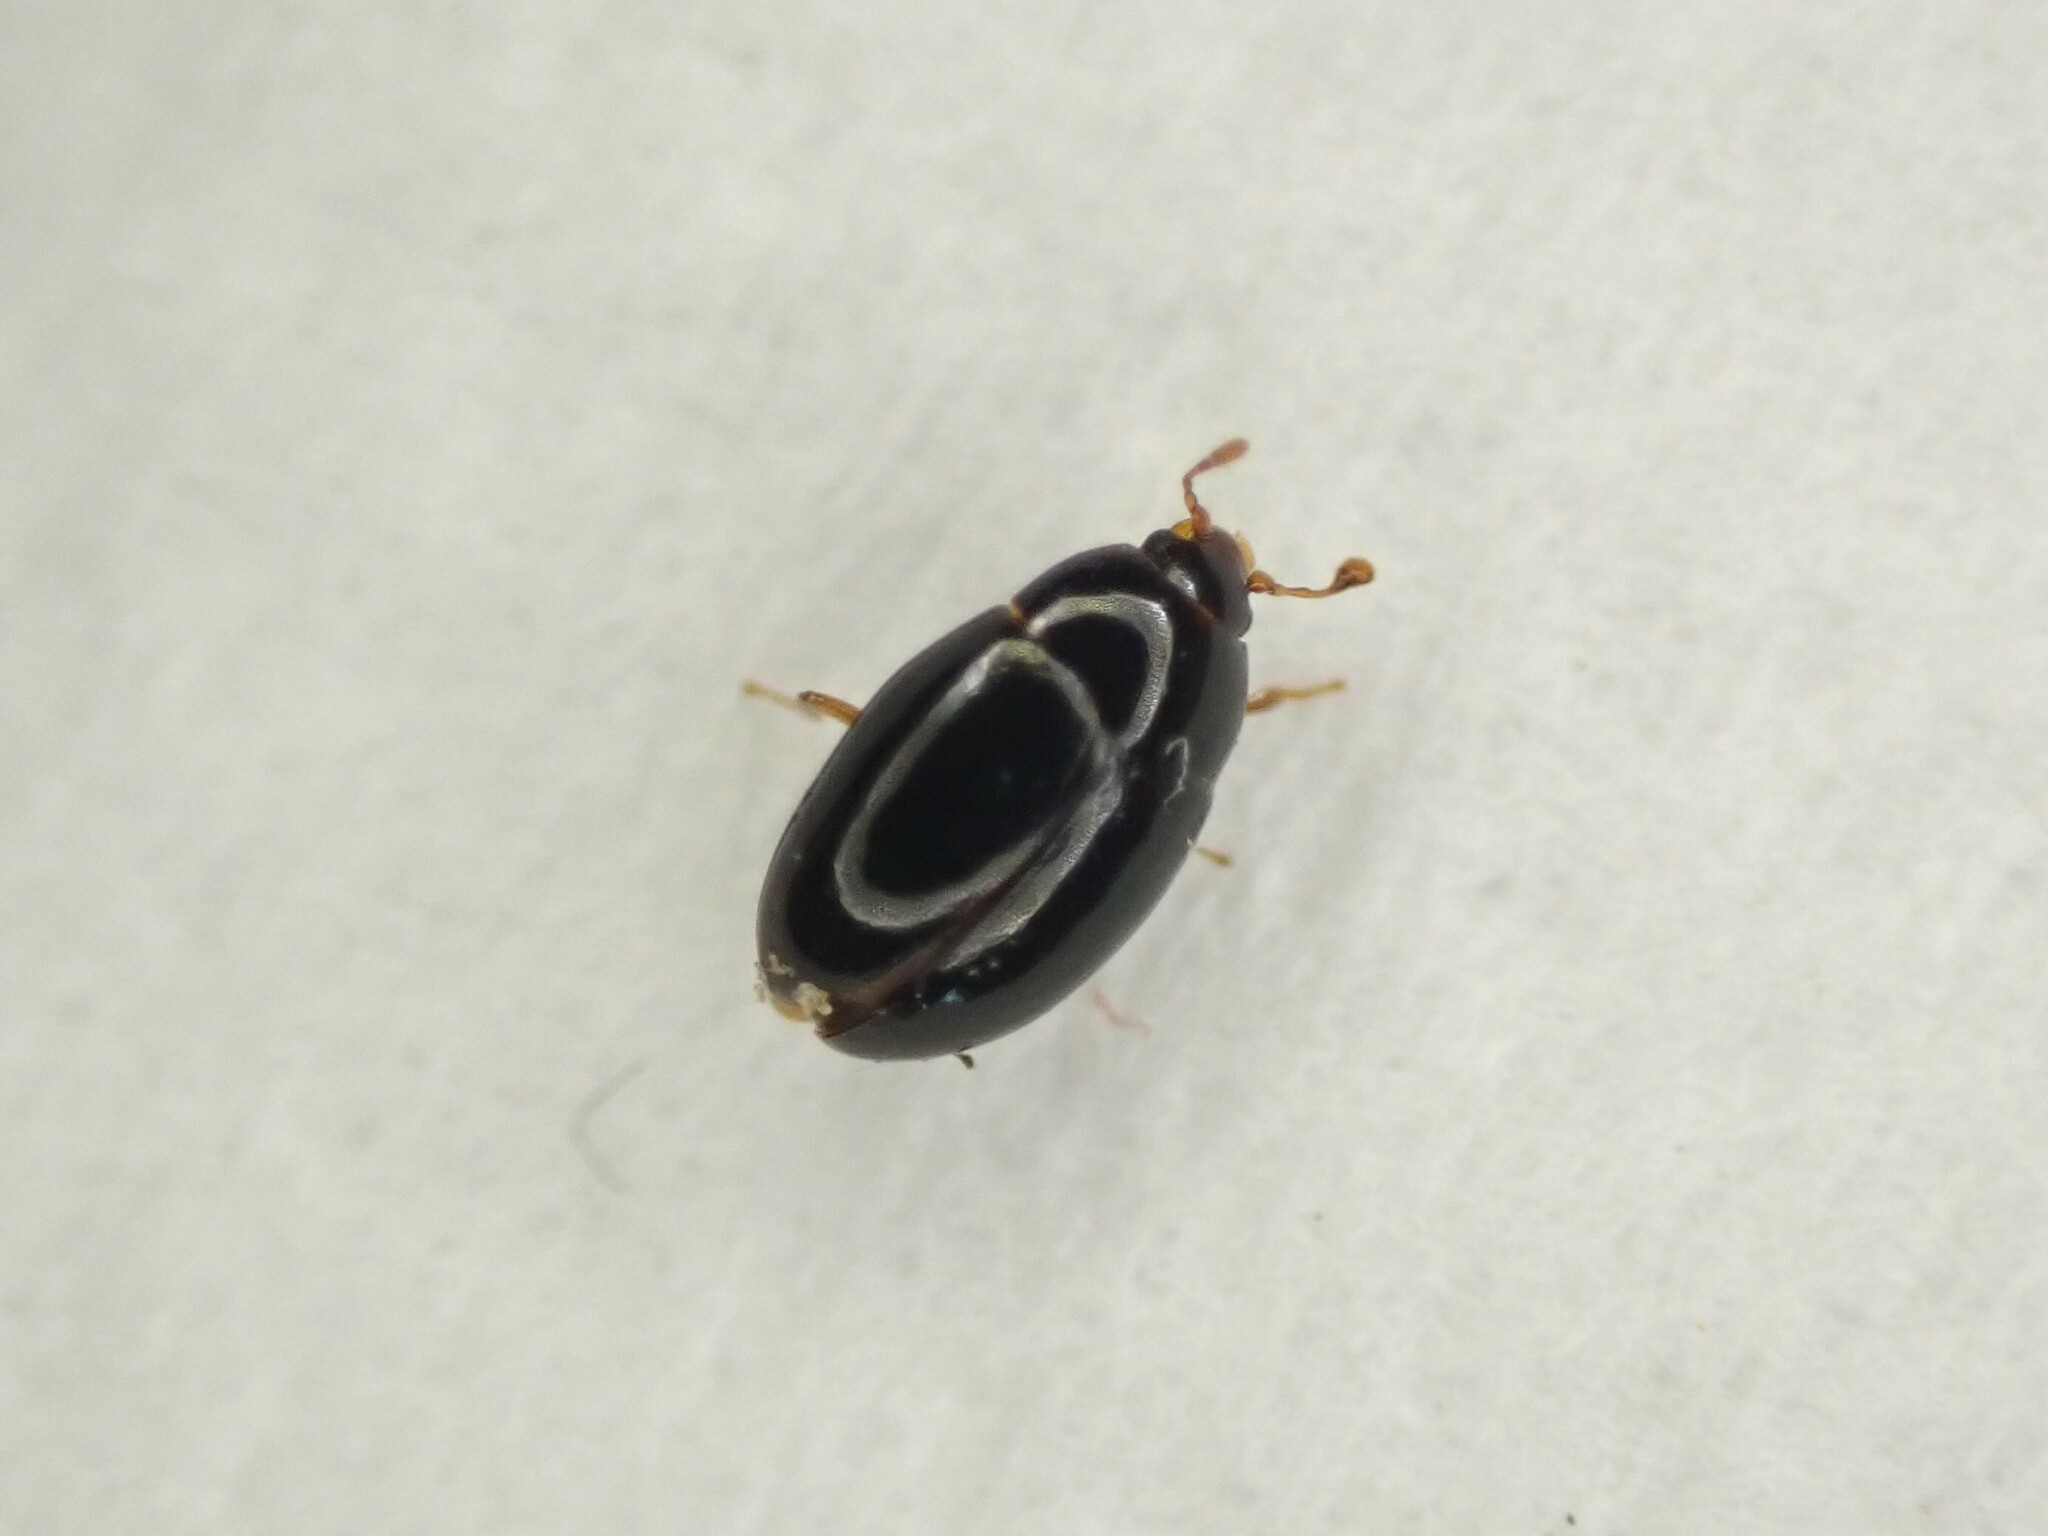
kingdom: Animalia
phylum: Arthropoda
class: Insecta
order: Coleoptera
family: Cerylonidae
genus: Hypodacnella
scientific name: Hypodacnella
